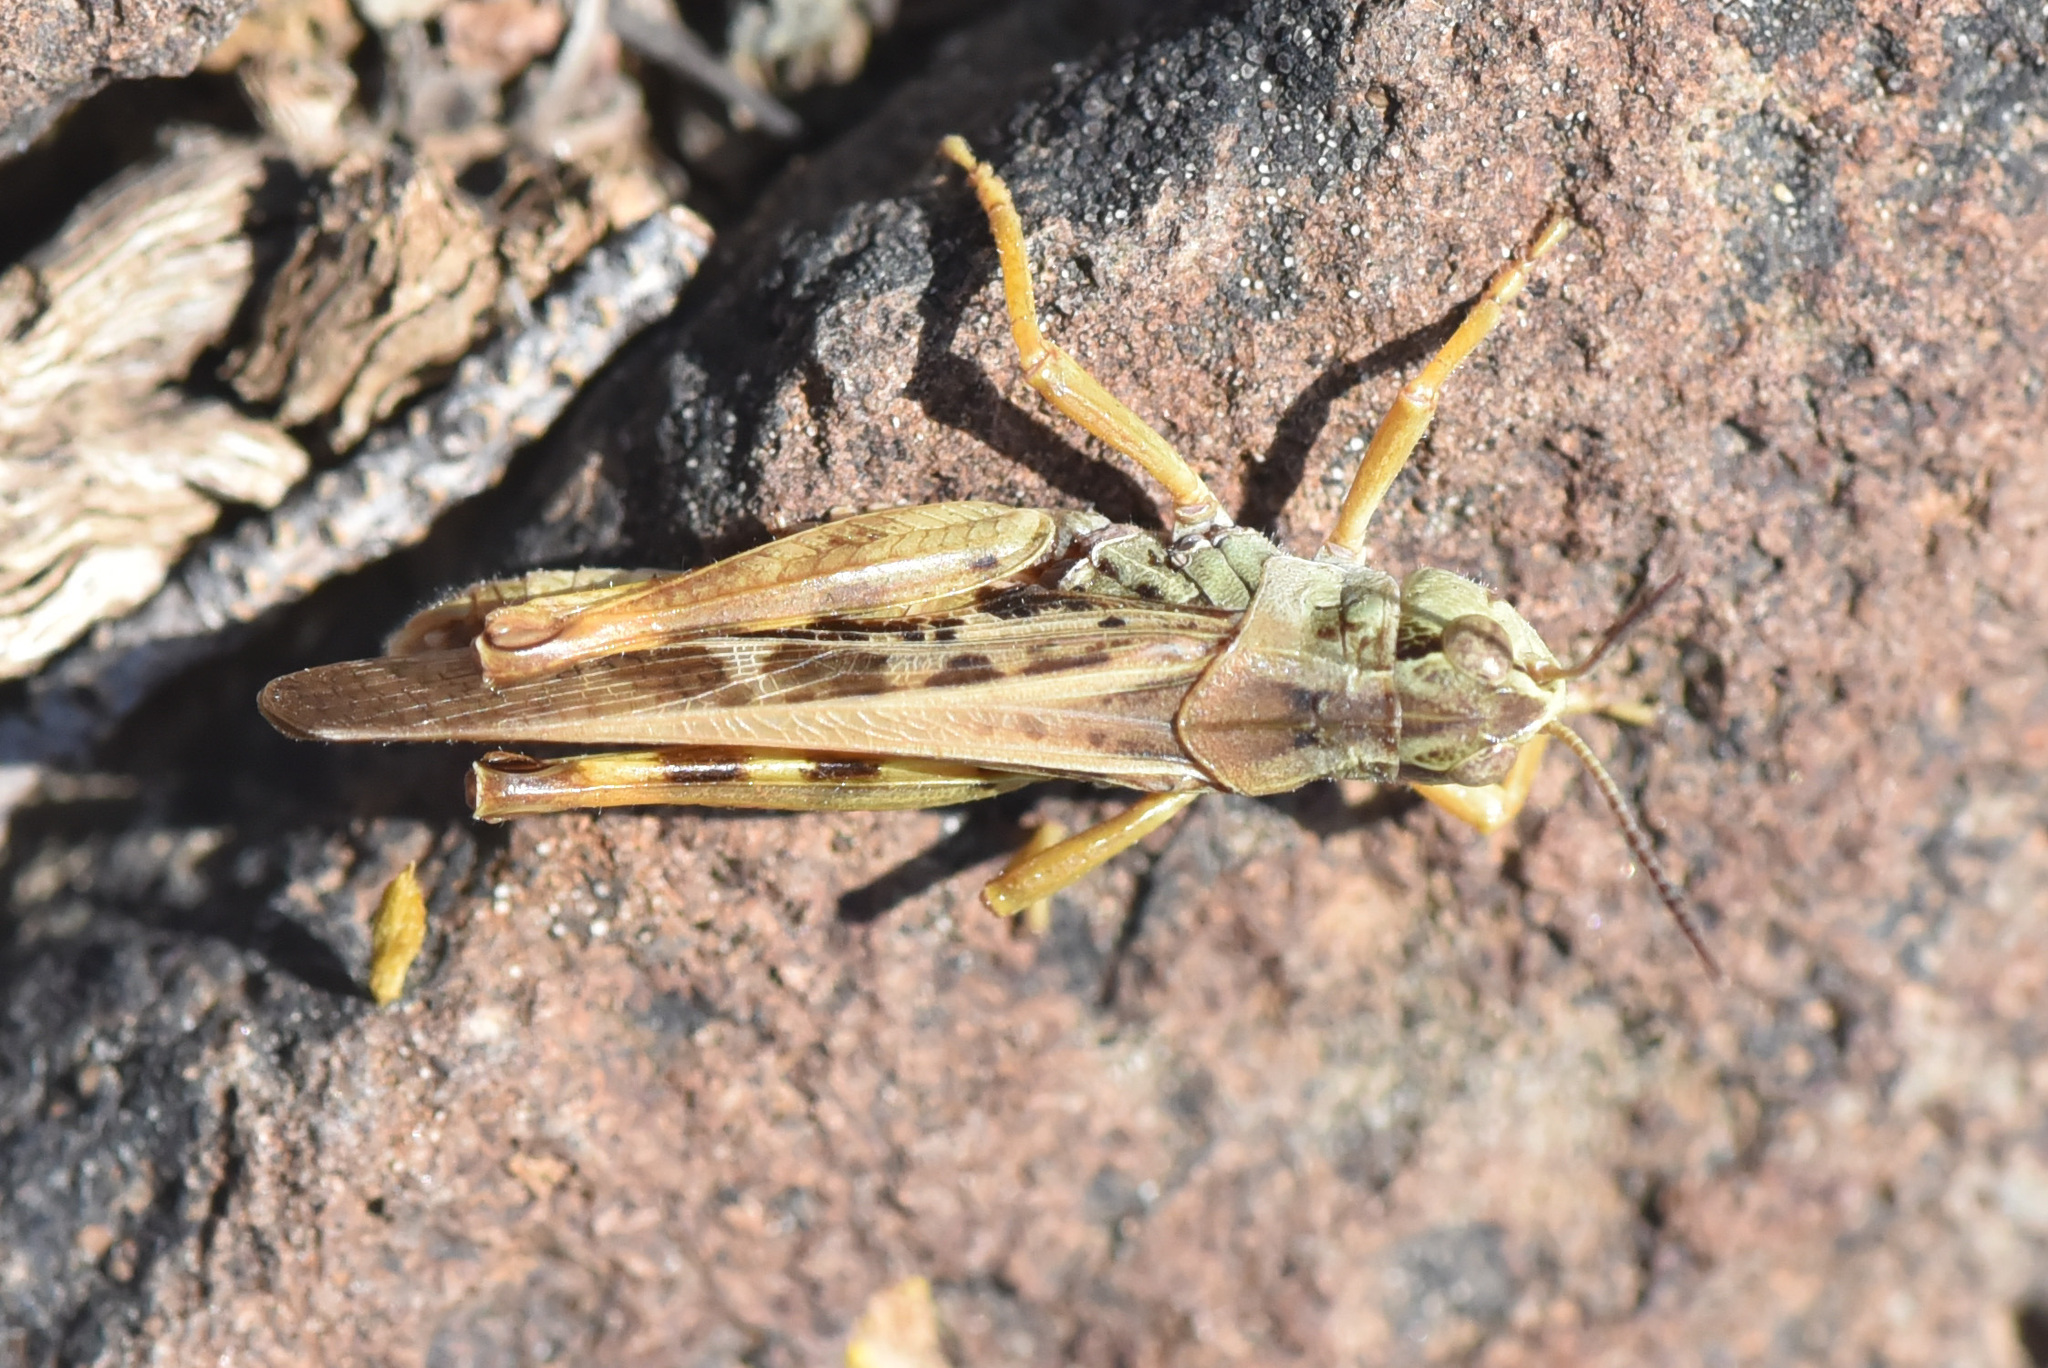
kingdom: Animalia
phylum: Arthropoda
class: Insecta
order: Orthoptera
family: Acrididae
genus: Camnula
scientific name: Camnula pellucida
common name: Clear-winged grasshopper
